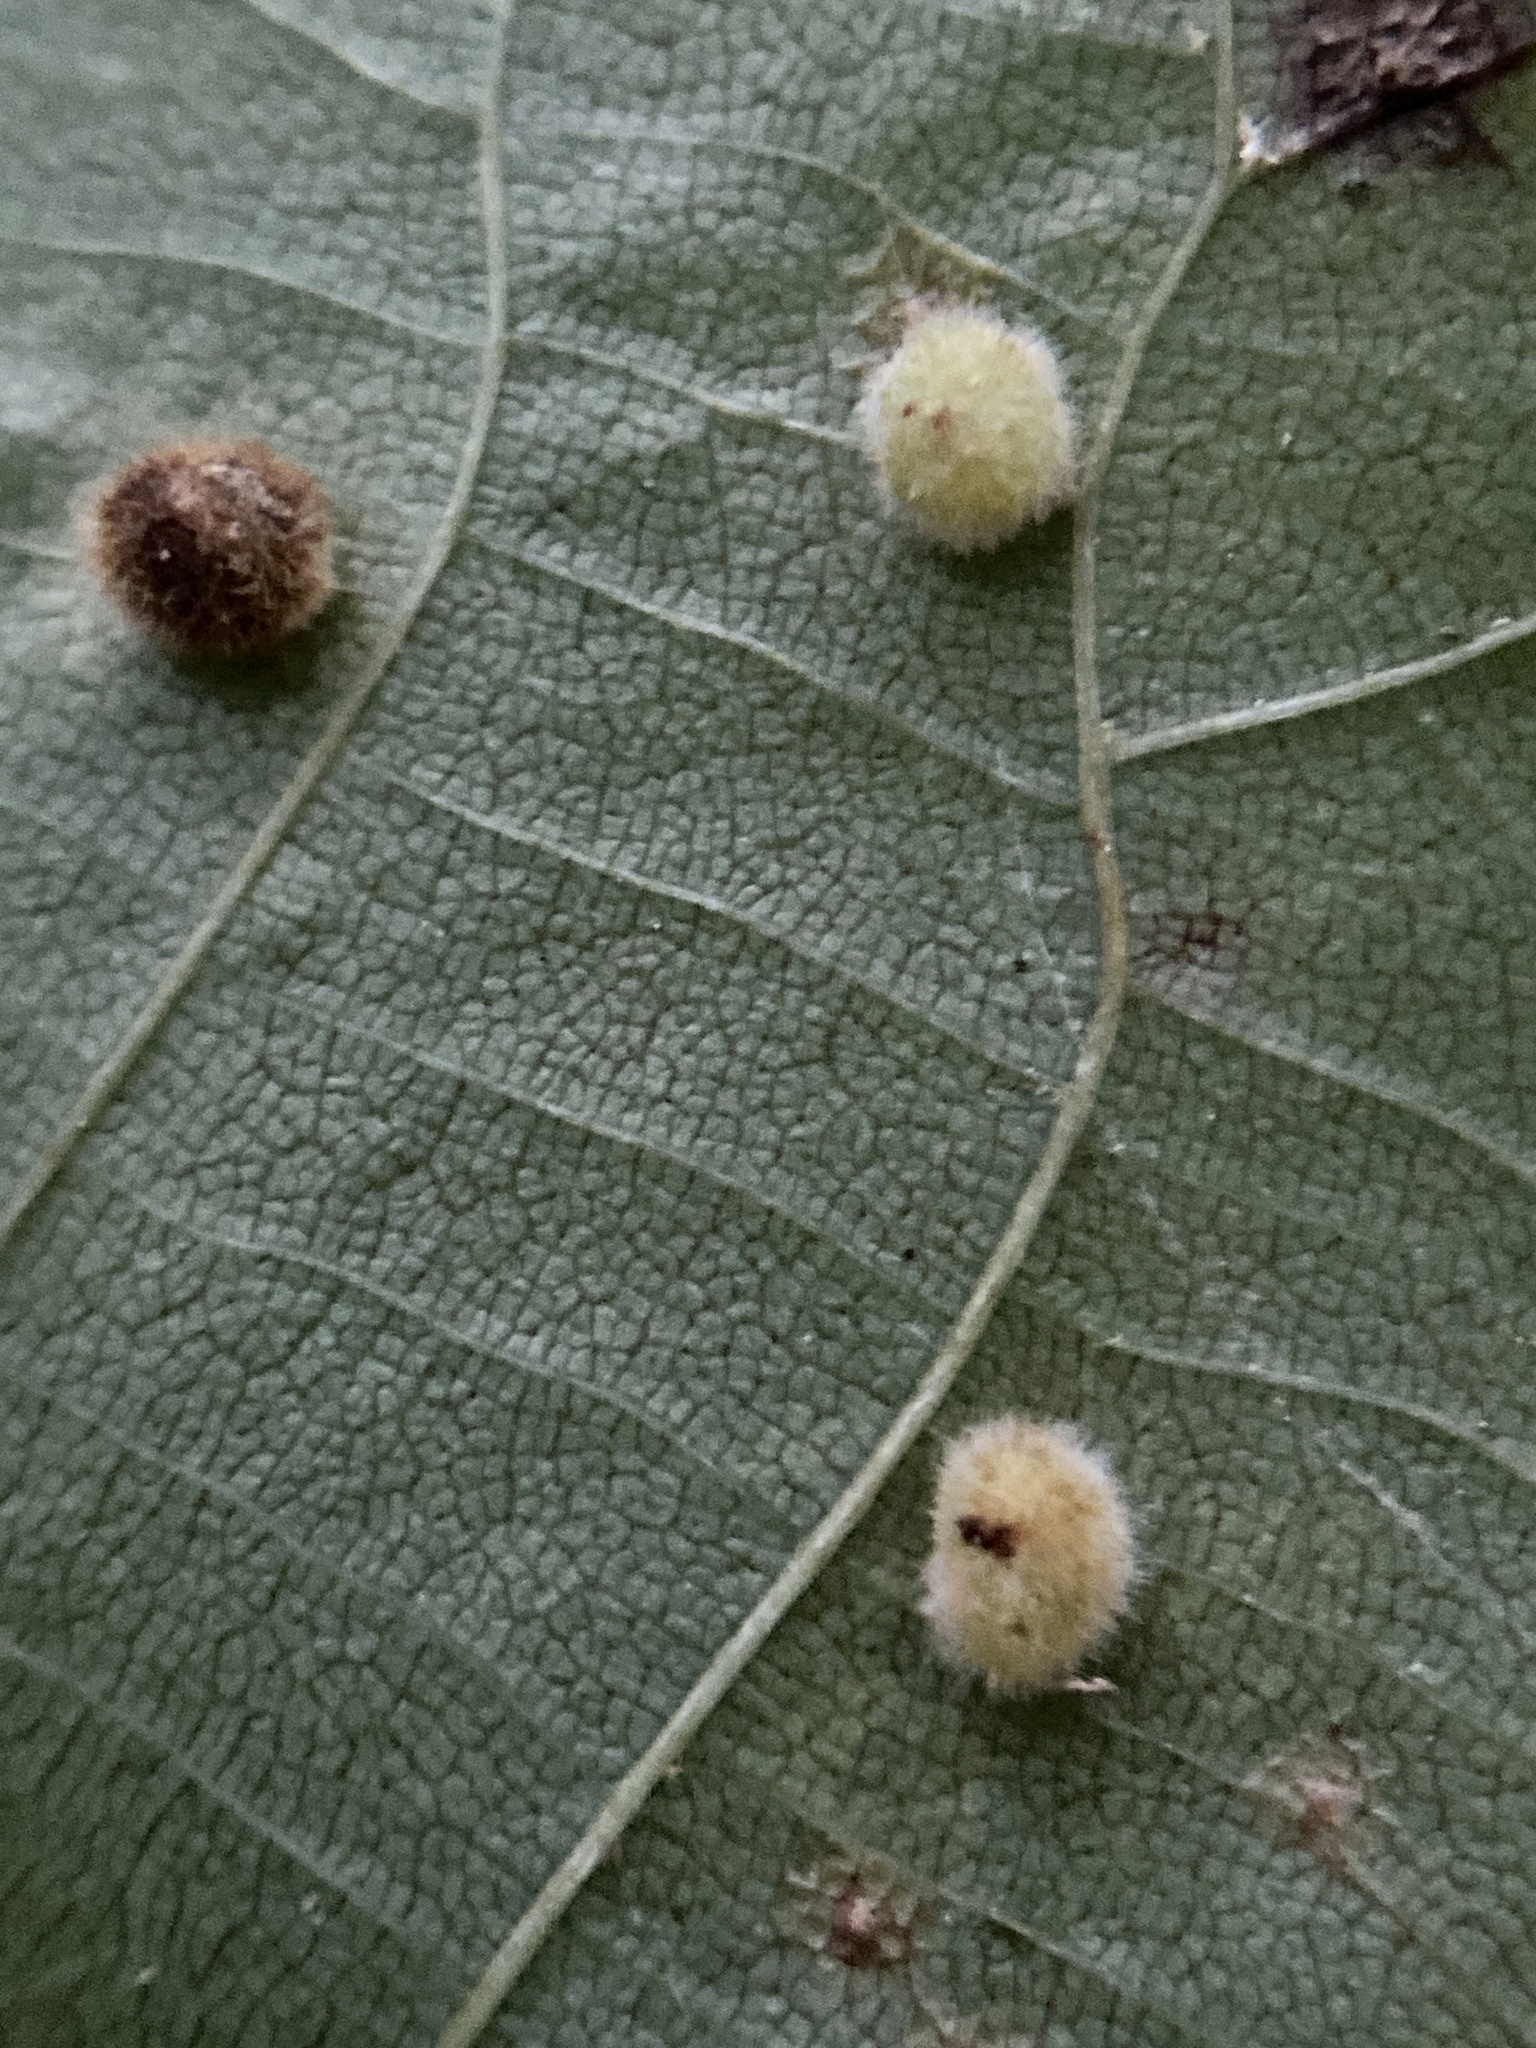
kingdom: Animalia
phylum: Arthropoda
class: Insecta
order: Diptera
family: Cecidomyiidae
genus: Caryomyia
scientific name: Caryomyia purpurea
